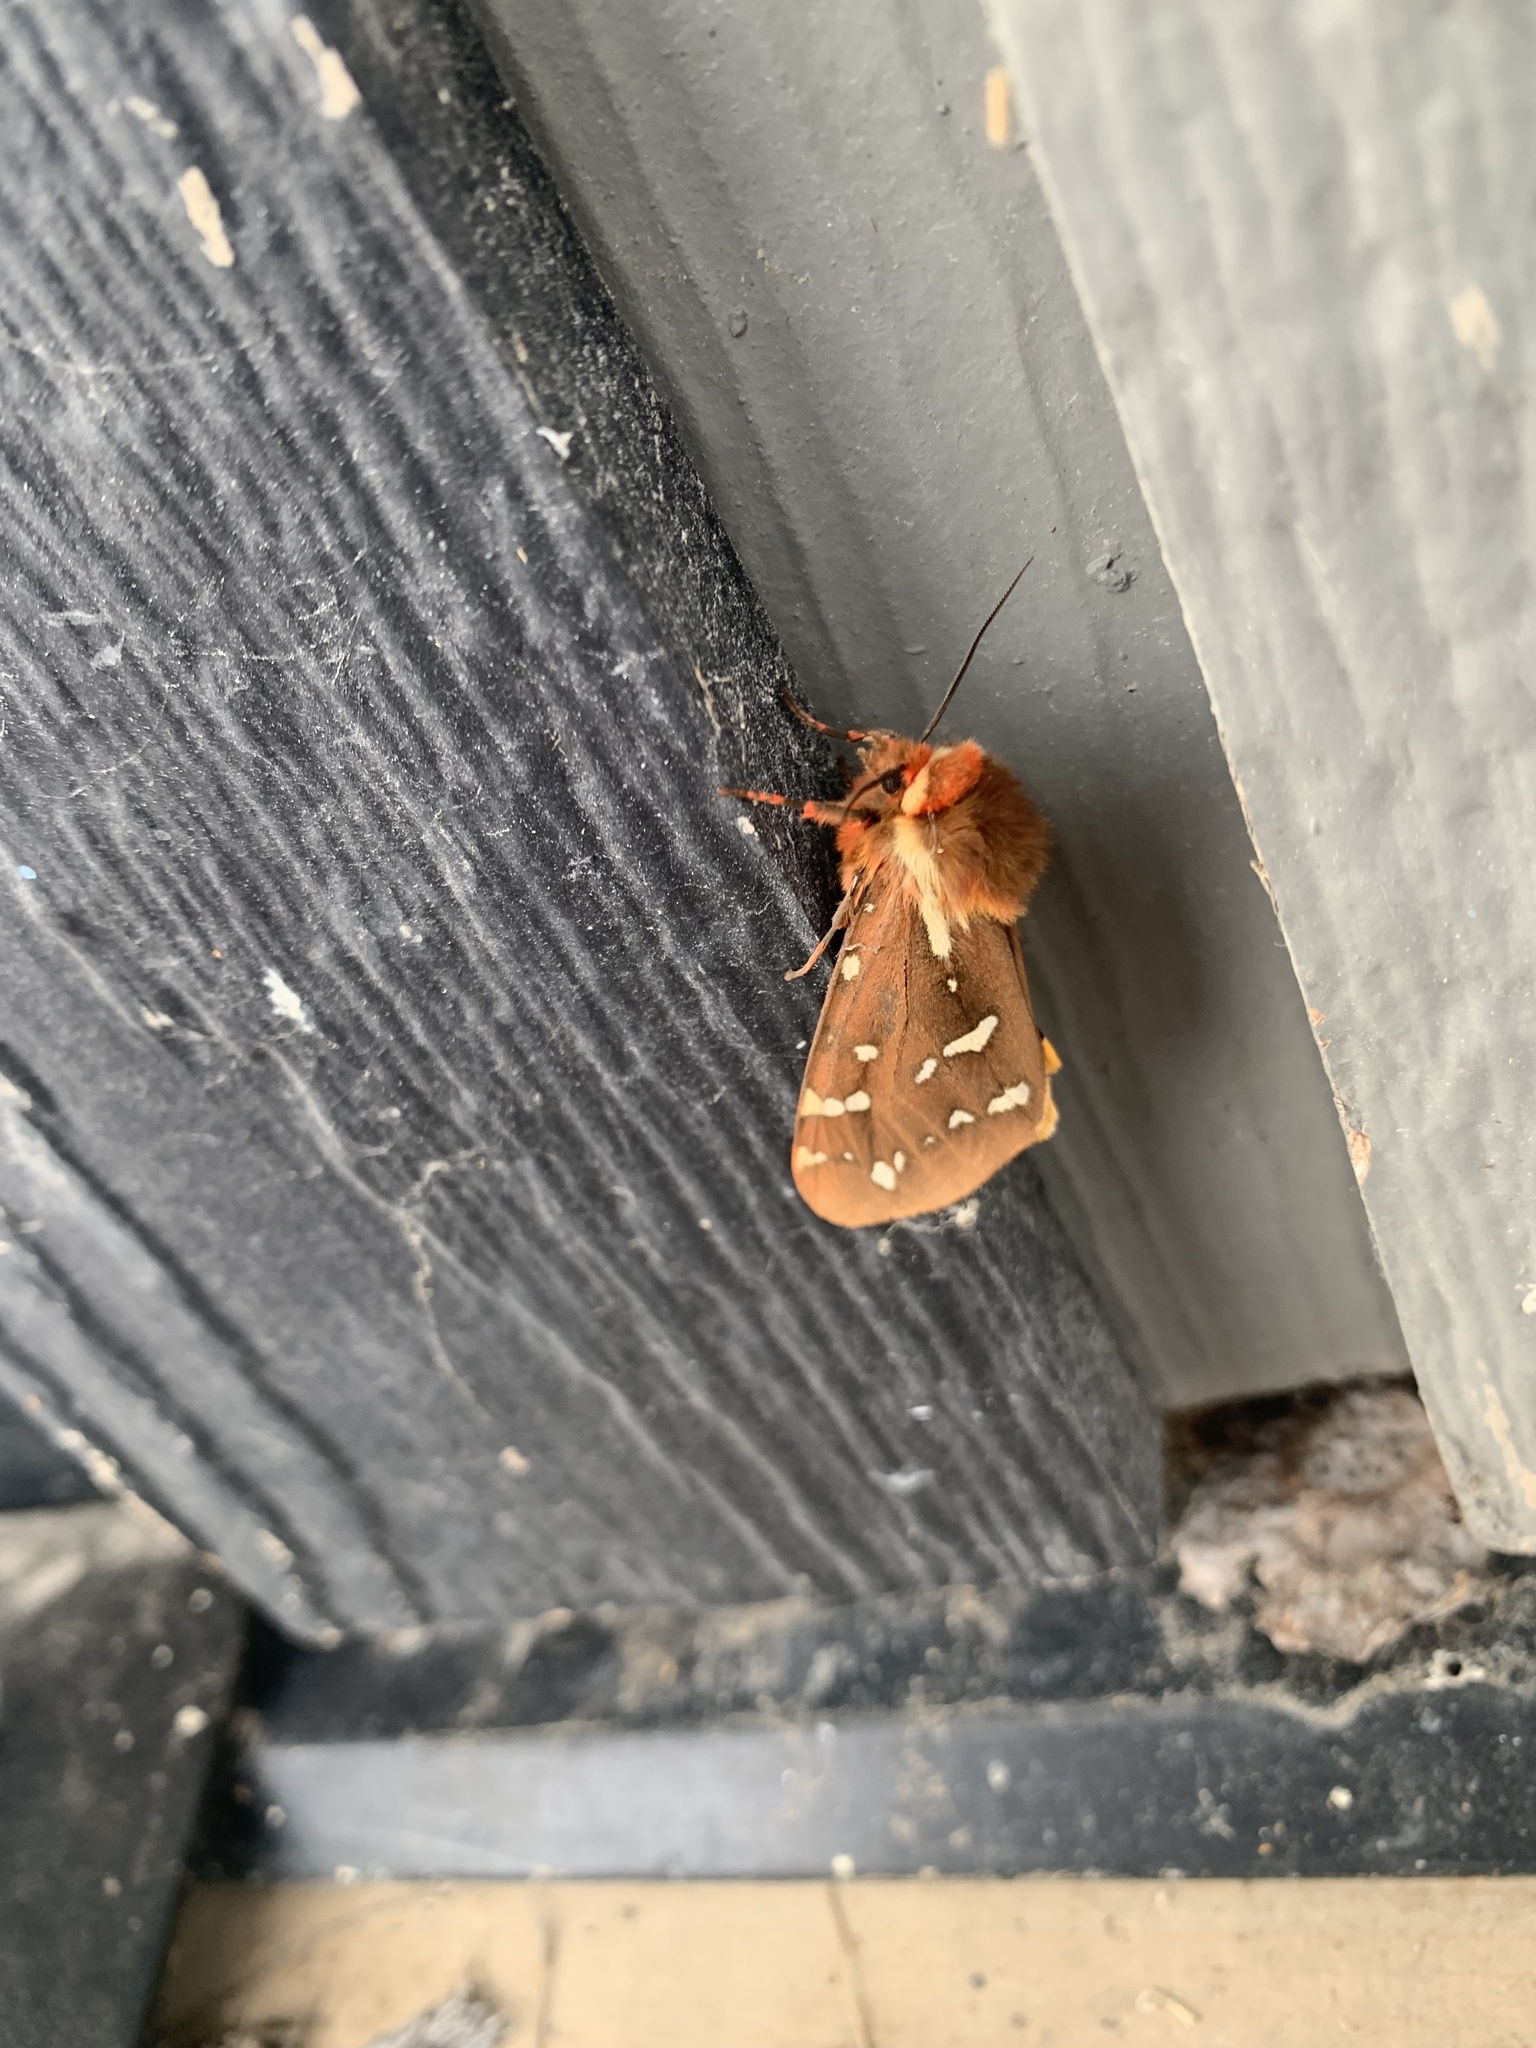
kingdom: Animalia
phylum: Arthropoda
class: Insecta
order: Lepidoptera
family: Erebidae
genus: Arctia
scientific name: Arctia parthenos
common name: St. lawrence tiger moth
